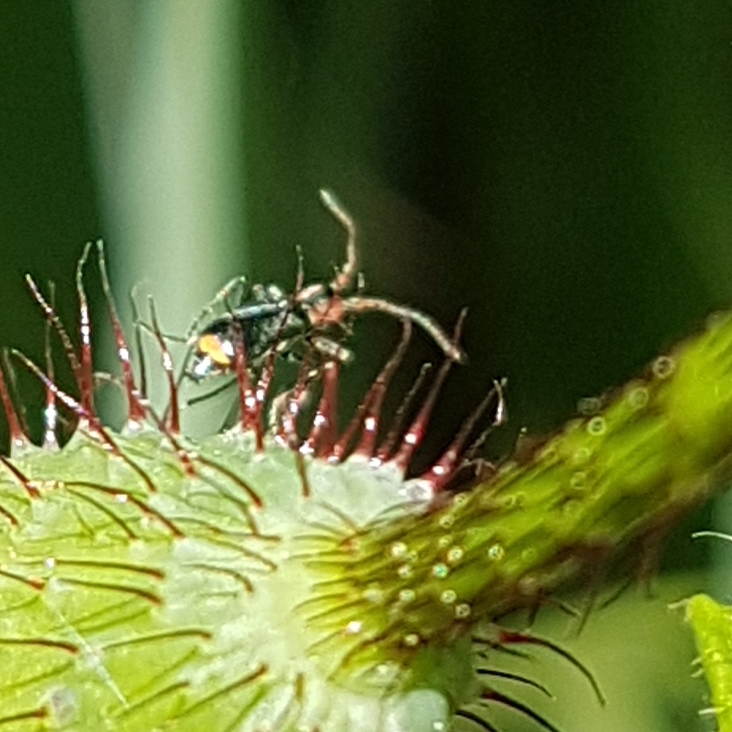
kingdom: Animalia
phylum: Arthropoda
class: Insecta
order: Coleoptera
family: Melyridae
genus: Cyrtosus
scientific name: Cyrtosus cyanipennis
